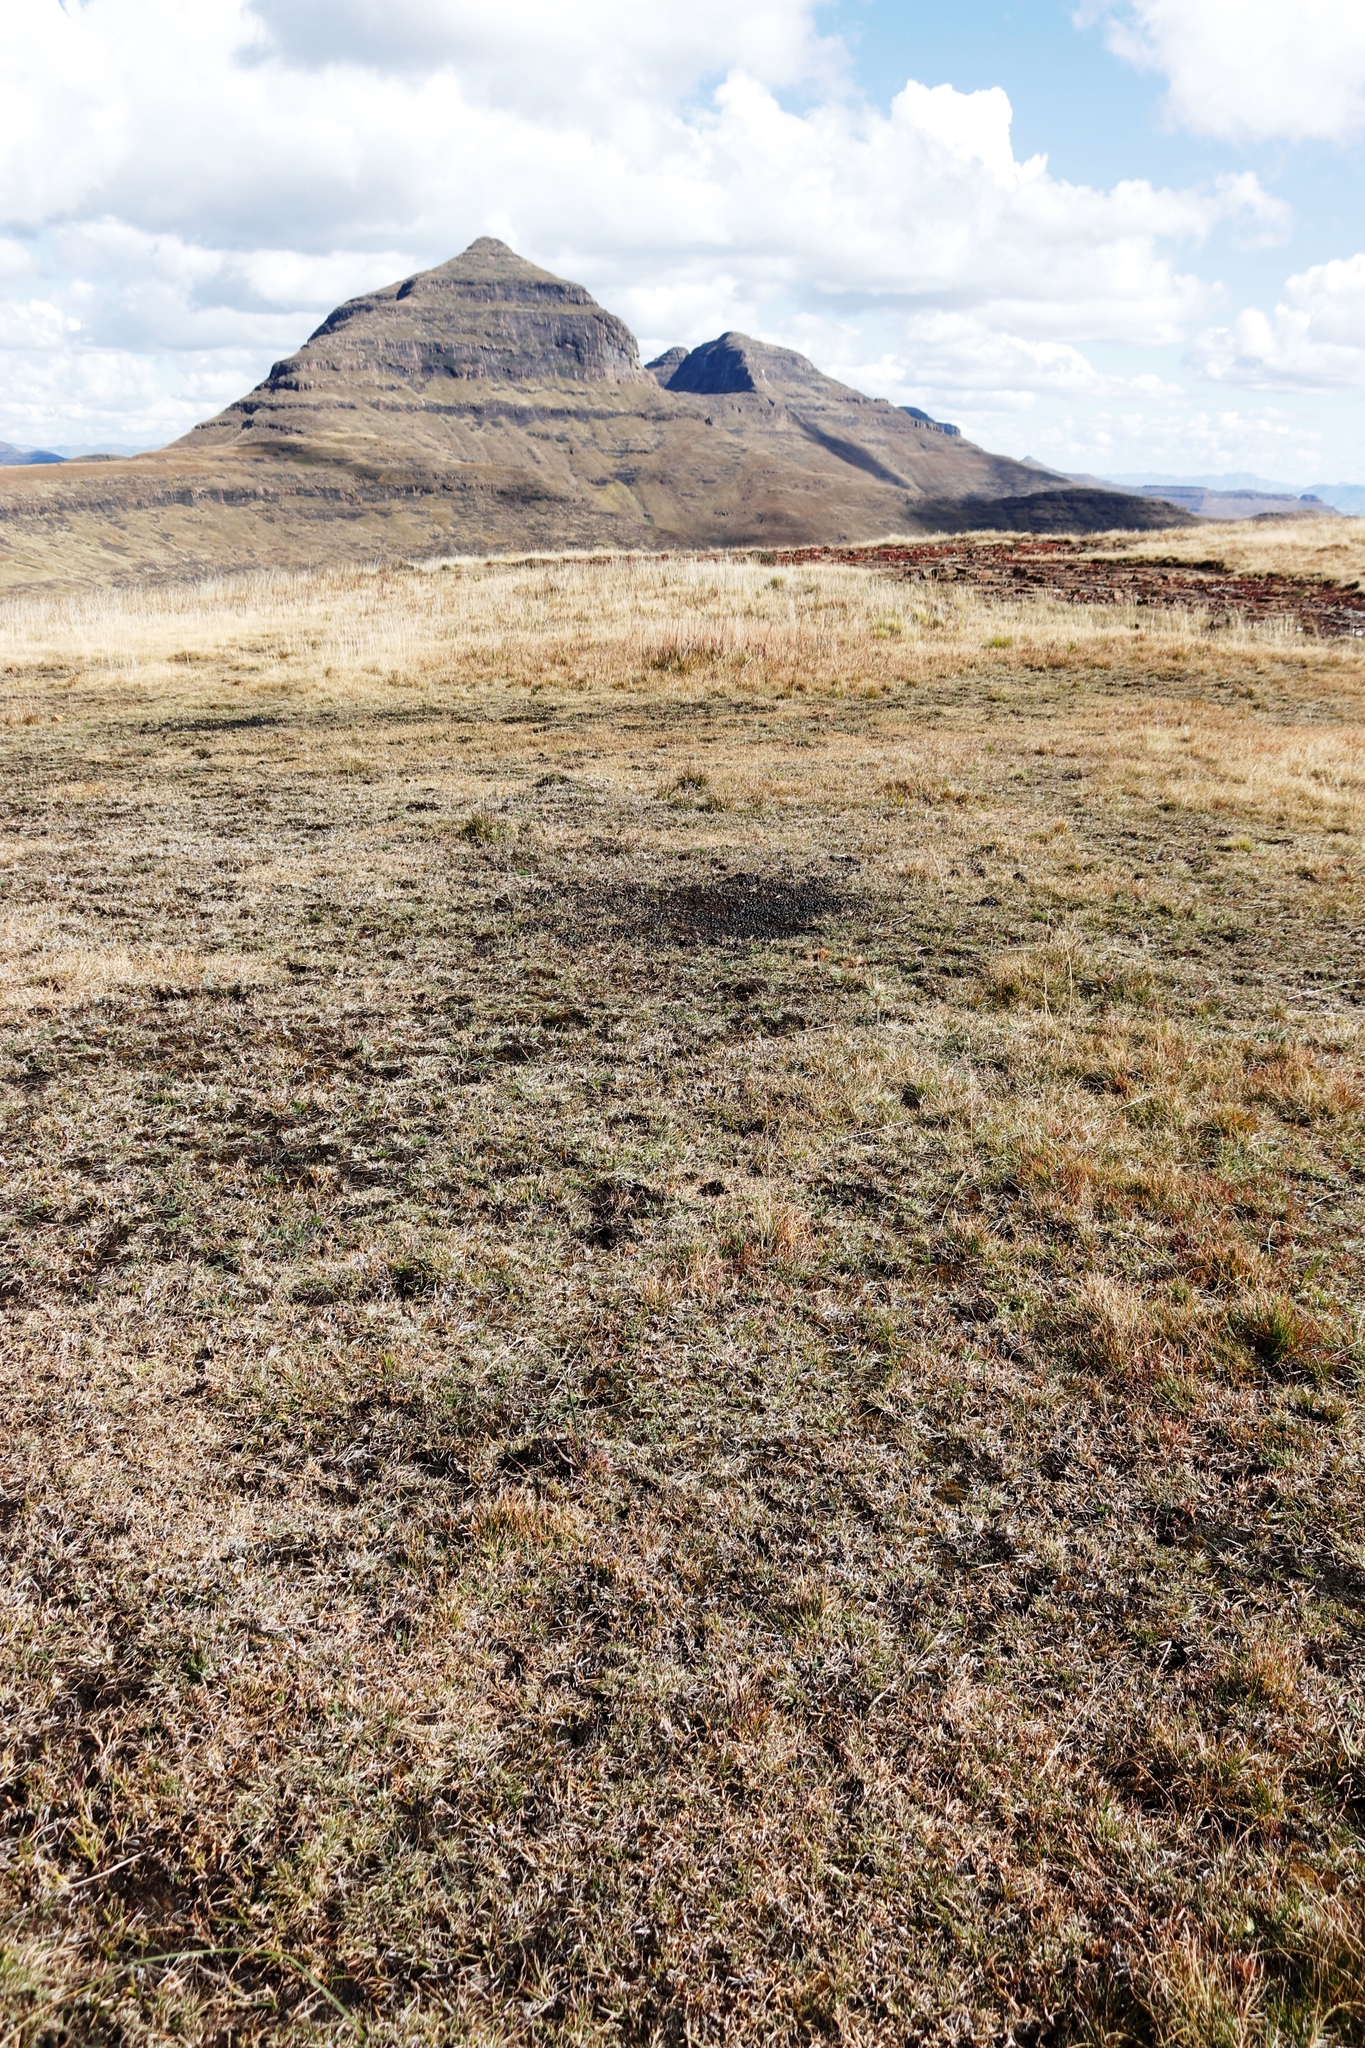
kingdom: Animalia
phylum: Chordata
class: Mammalia
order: Artiodactyla
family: Bovidae
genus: Connochaetes
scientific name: Connochaetes gnou
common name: Black wildebeest
